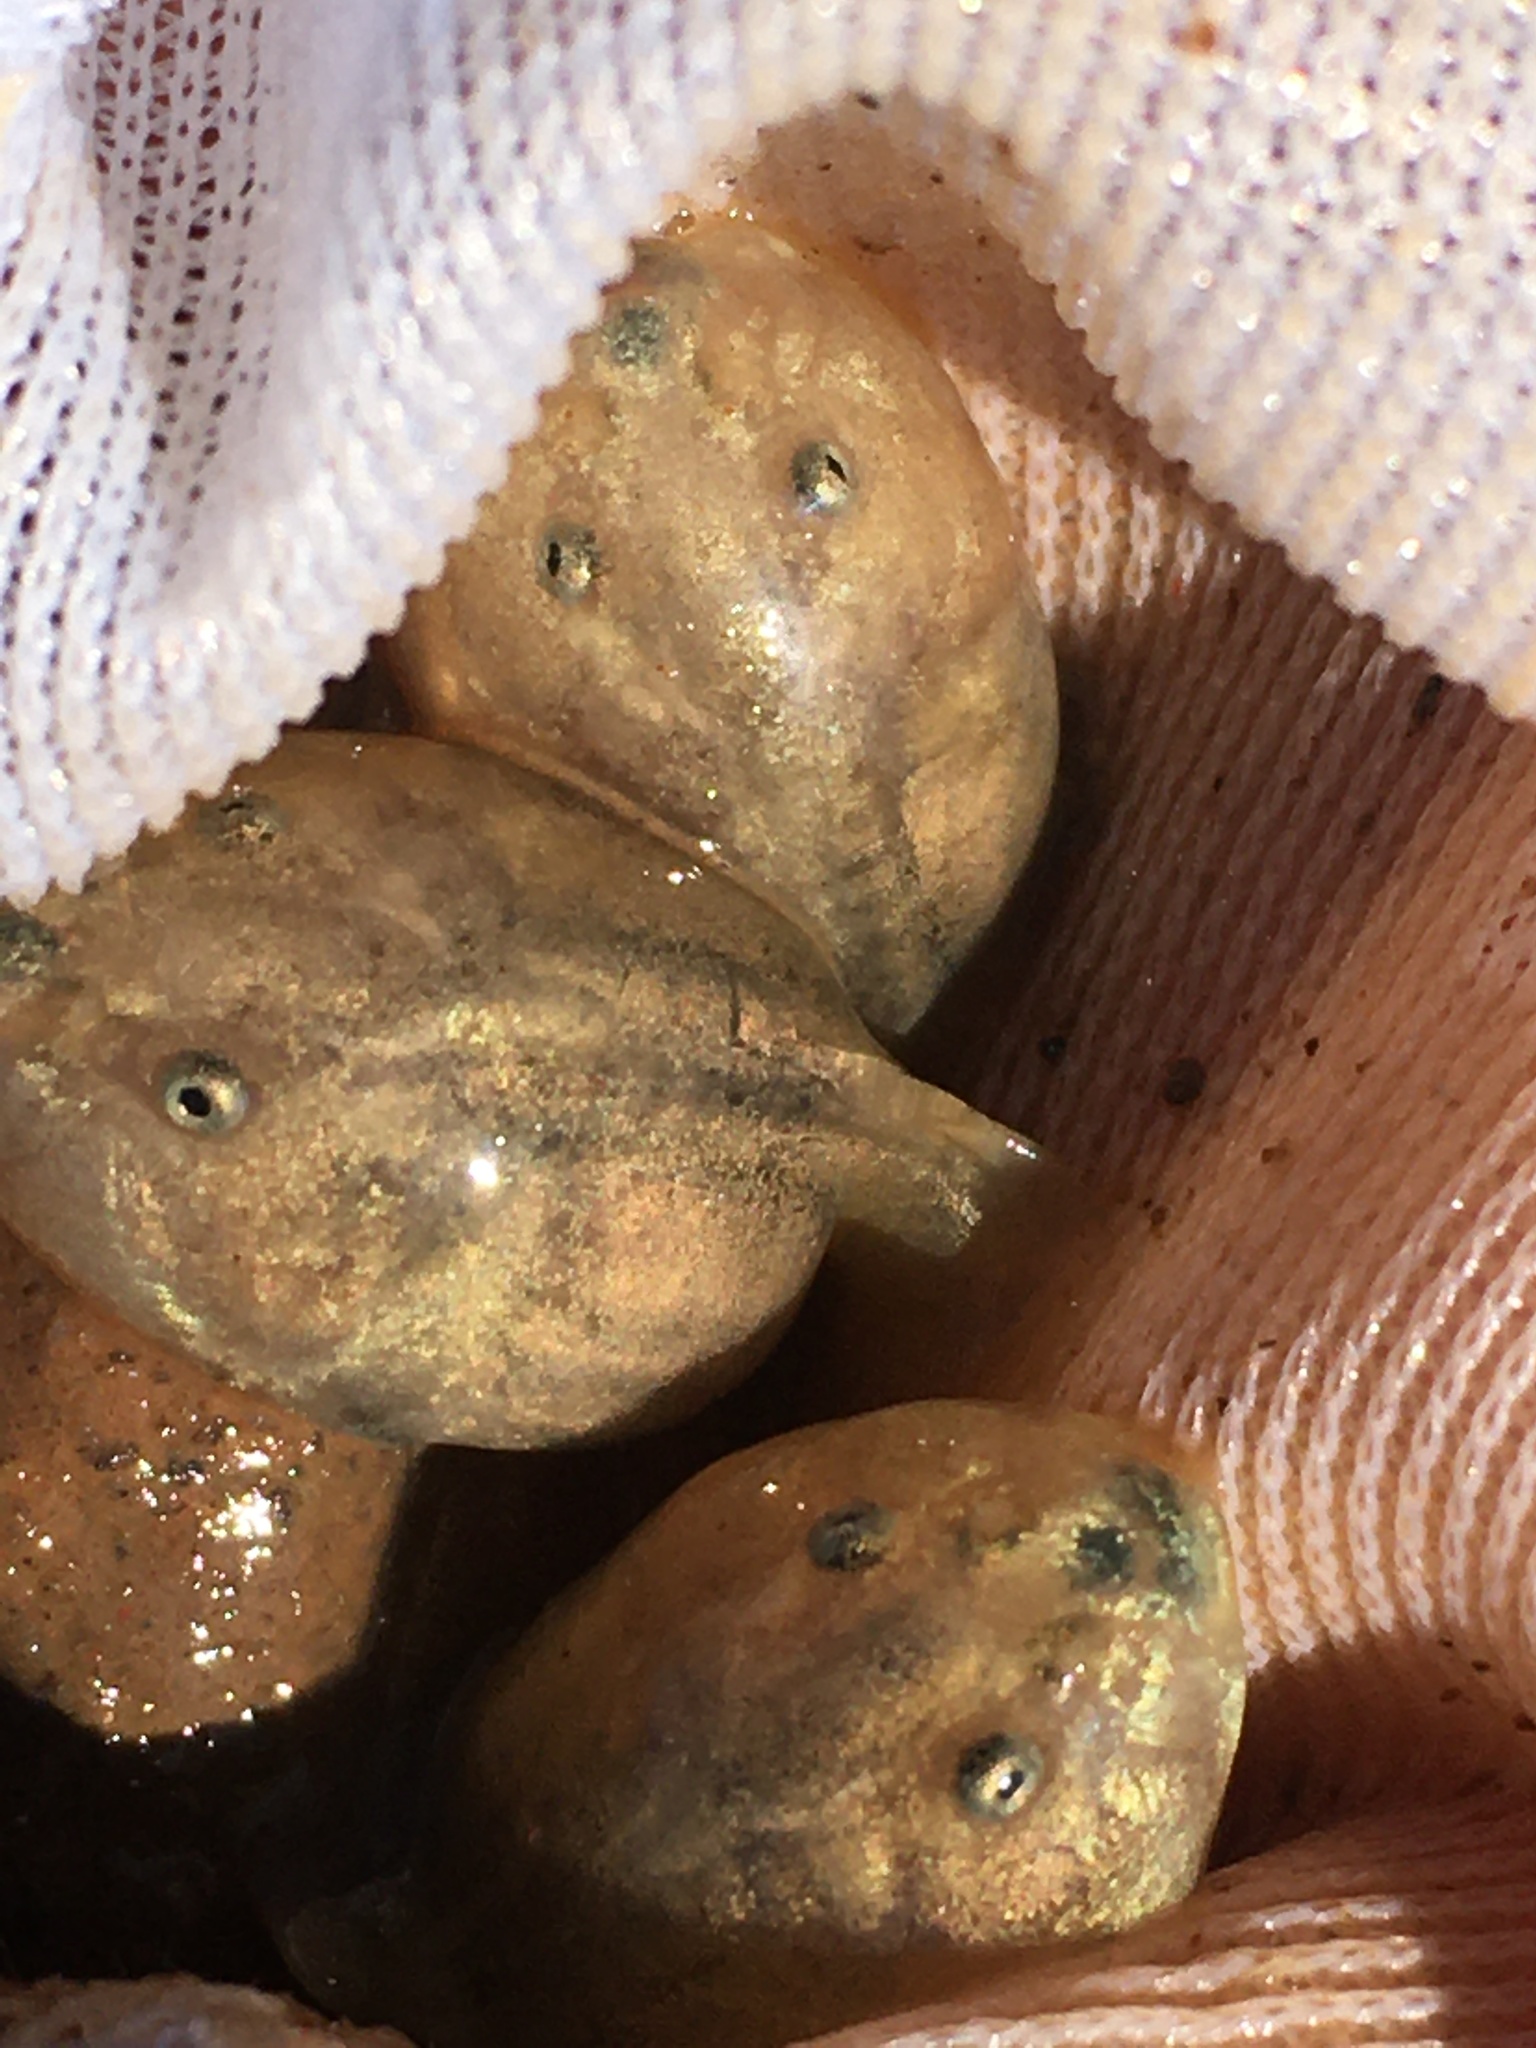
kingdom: Animalia
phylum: Chordata
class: Amphibia
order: Anura
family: Scaphiopodidae
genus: Spea
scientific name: Spea hammondii
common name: Western spadefoot toad
